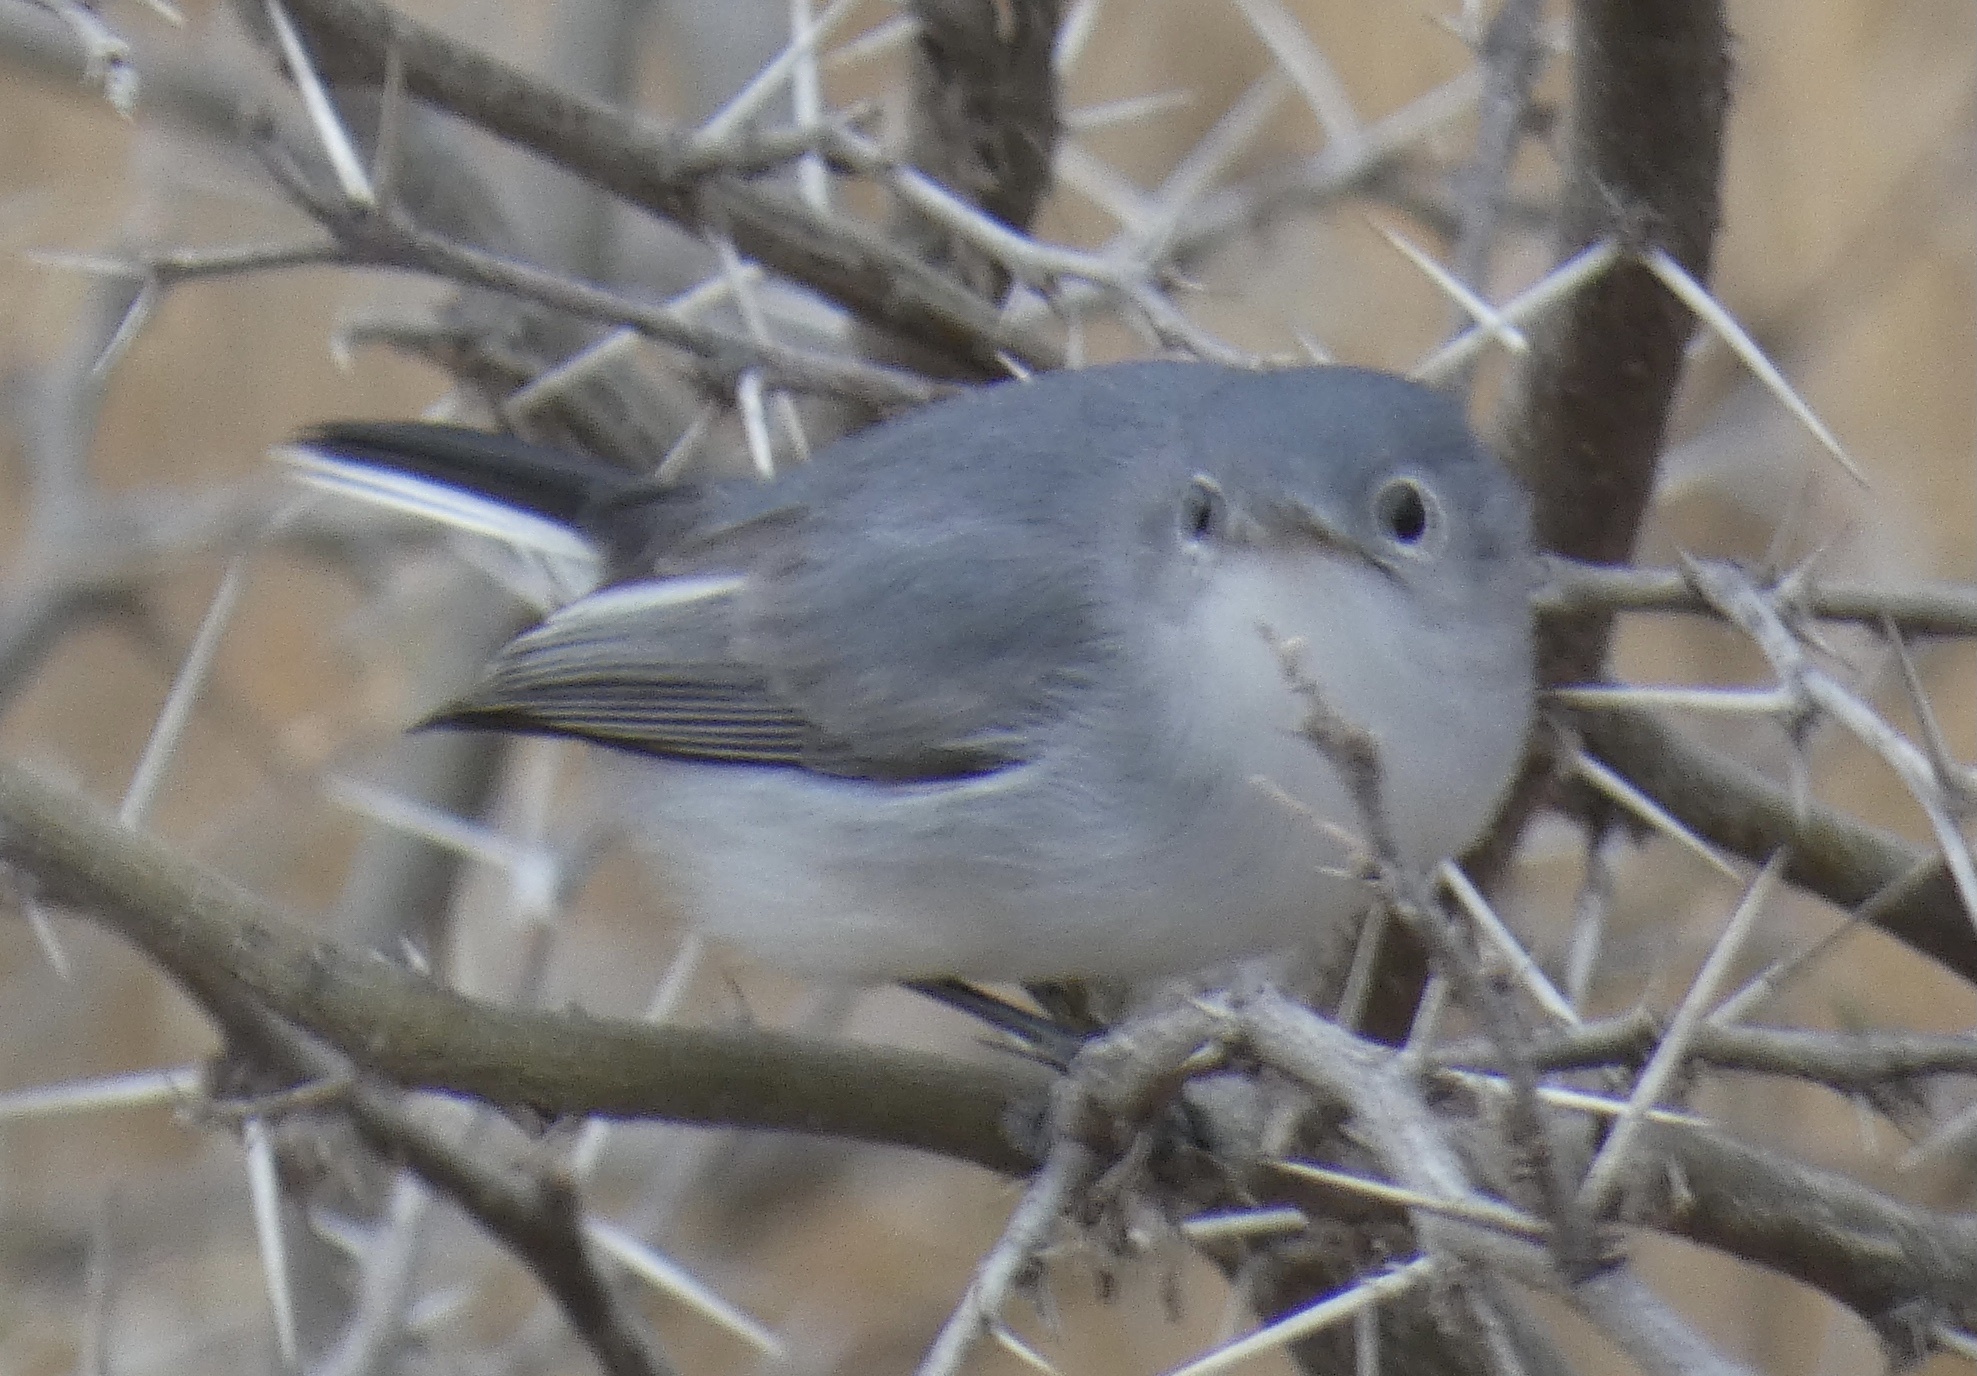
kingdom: Animalia
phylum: Chordata
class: Aves
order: Passeriformes
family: Polioptilidae
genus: Polioptila
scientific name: Polioptila caerulea
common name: Blue-gray gnatcatcher
